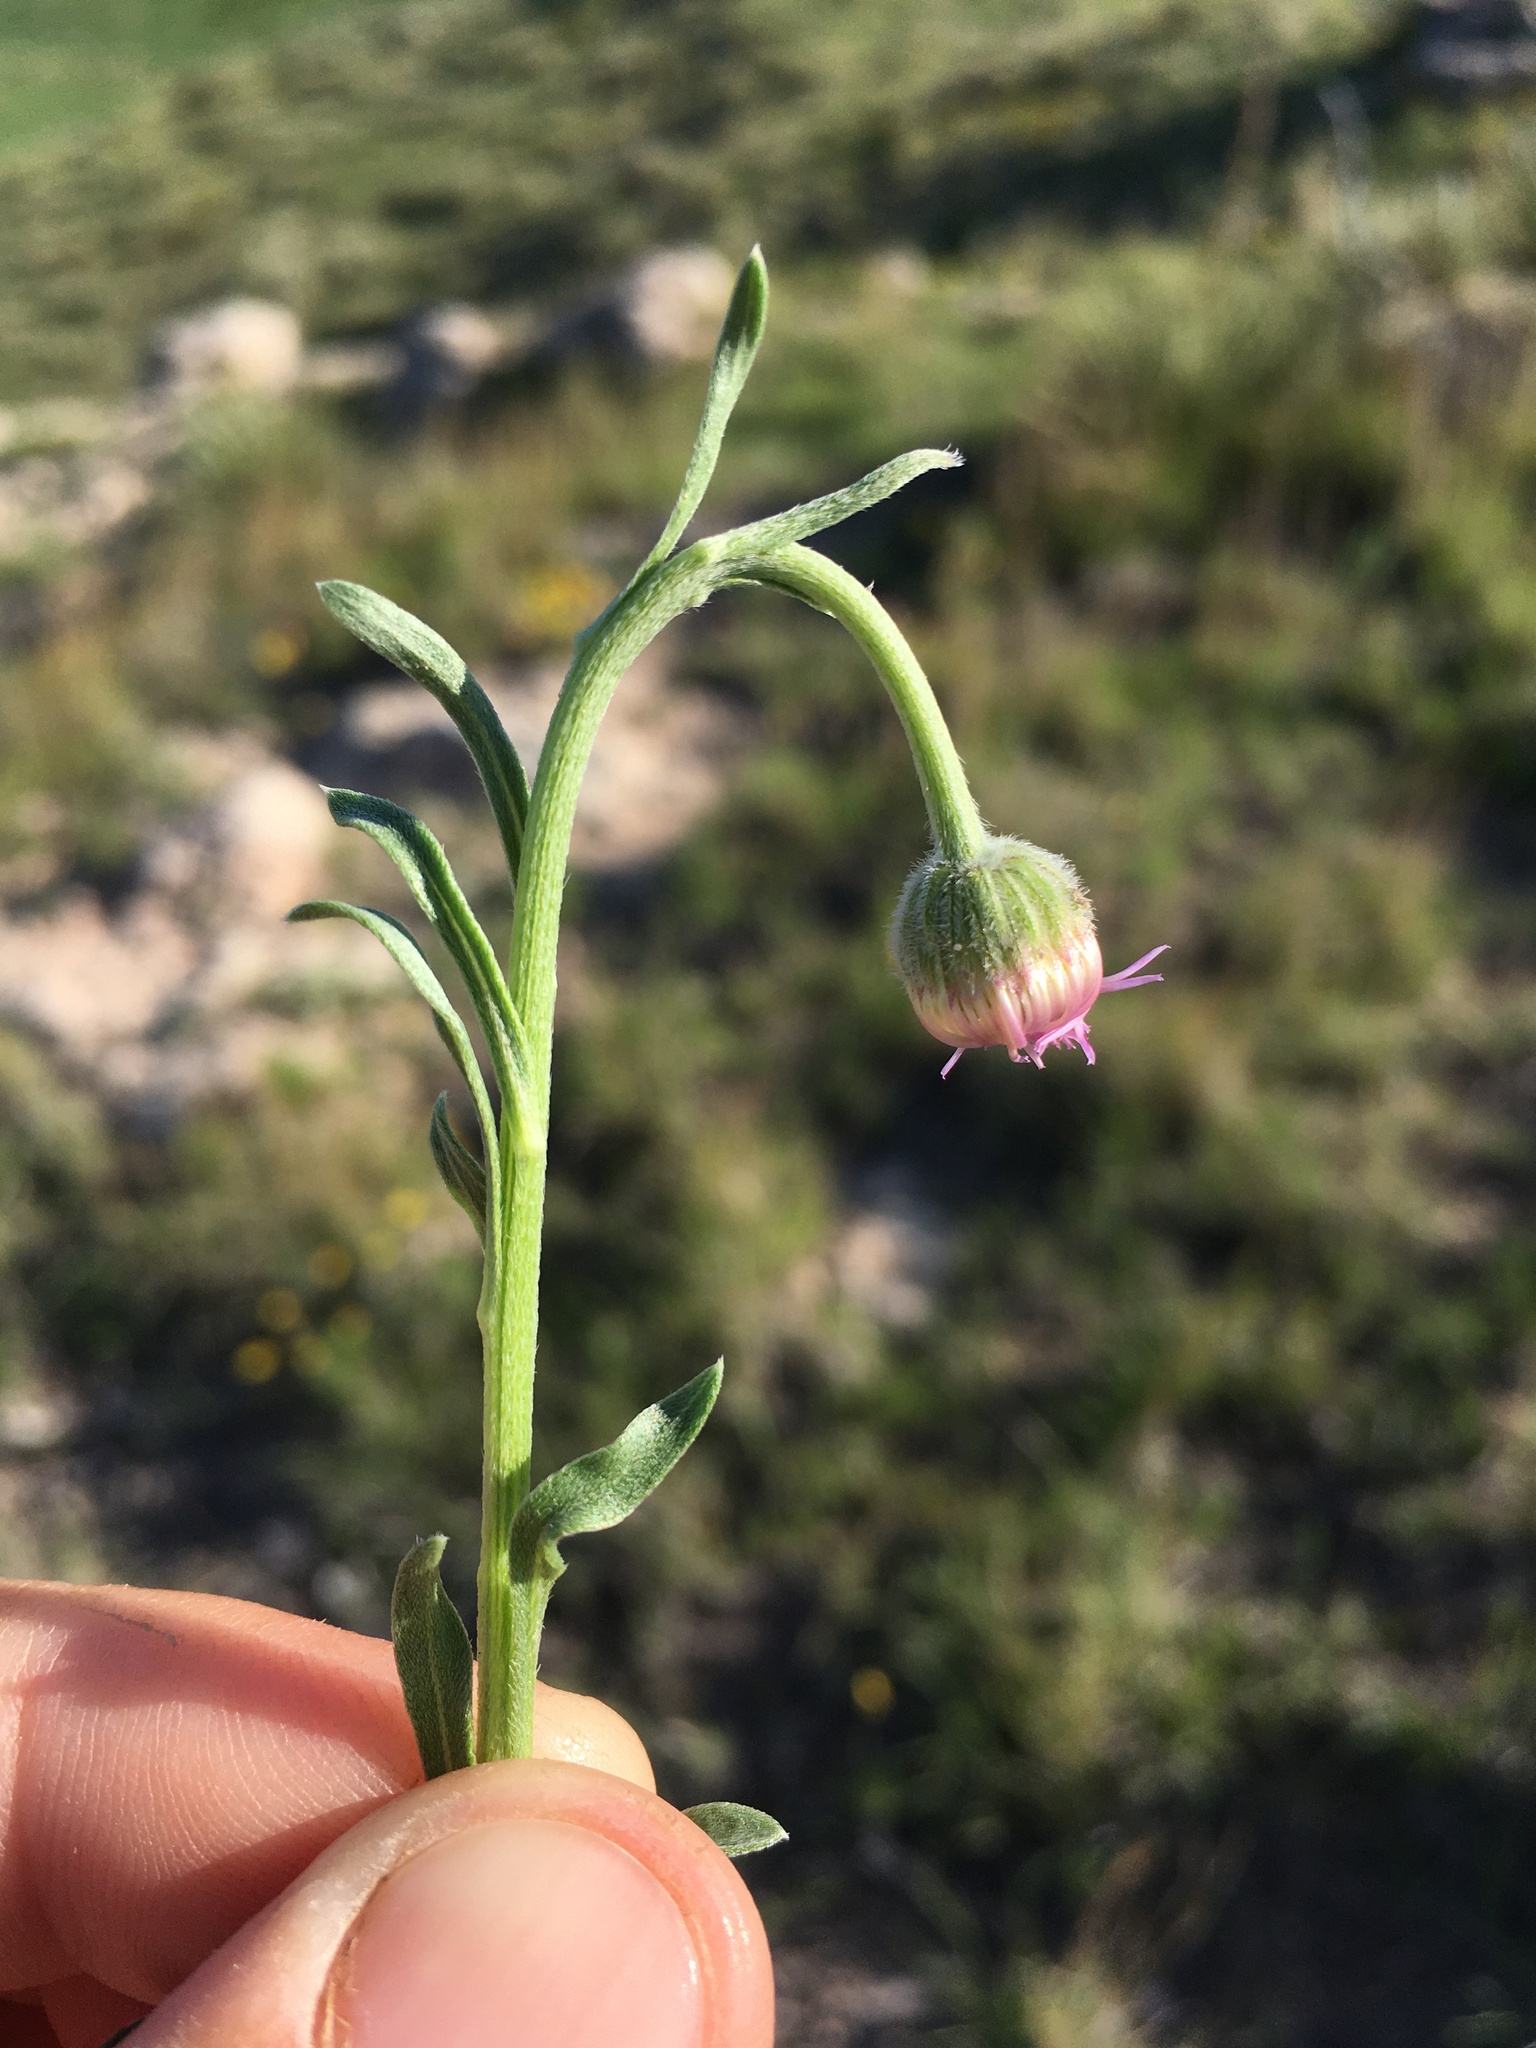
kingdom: Plantae
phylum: Tracheophyta
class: Magnoliopsida
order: Asterales
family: Asteraceae
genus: Erigeron
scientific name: Erigeron canus
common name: Hoary fleabane
